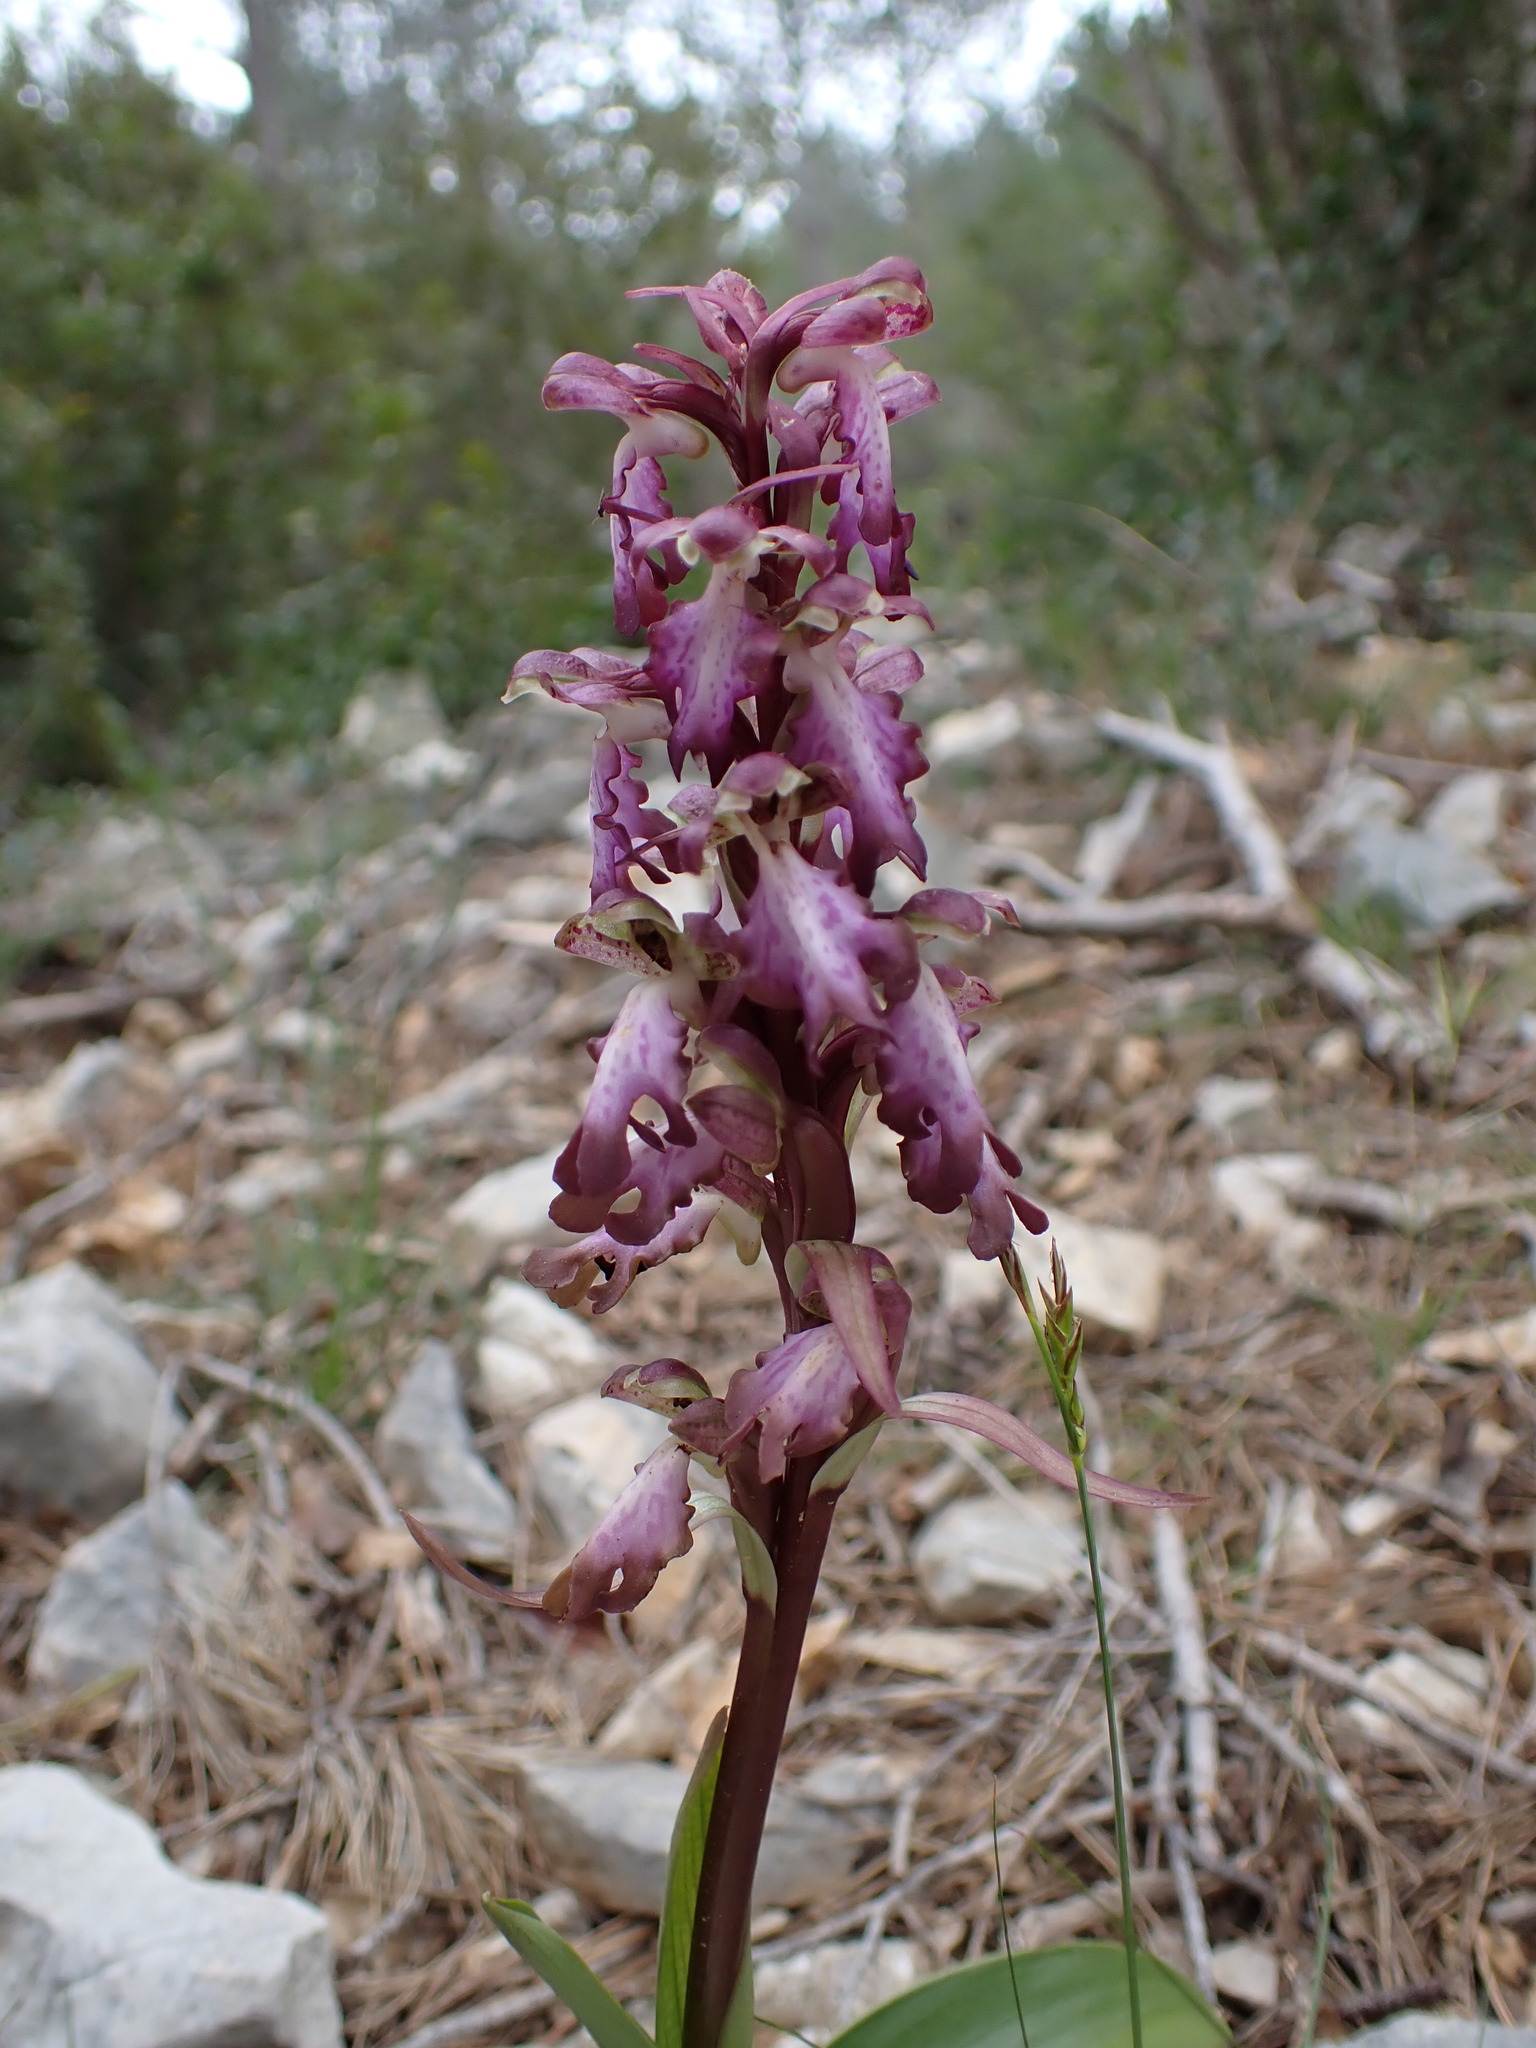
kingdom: Plantae
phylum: Tracheophyta
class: Liliopsida
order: Asparagales
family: Orchidaceae
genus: Himantoglossum
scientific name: Himantoglossum robertianum
